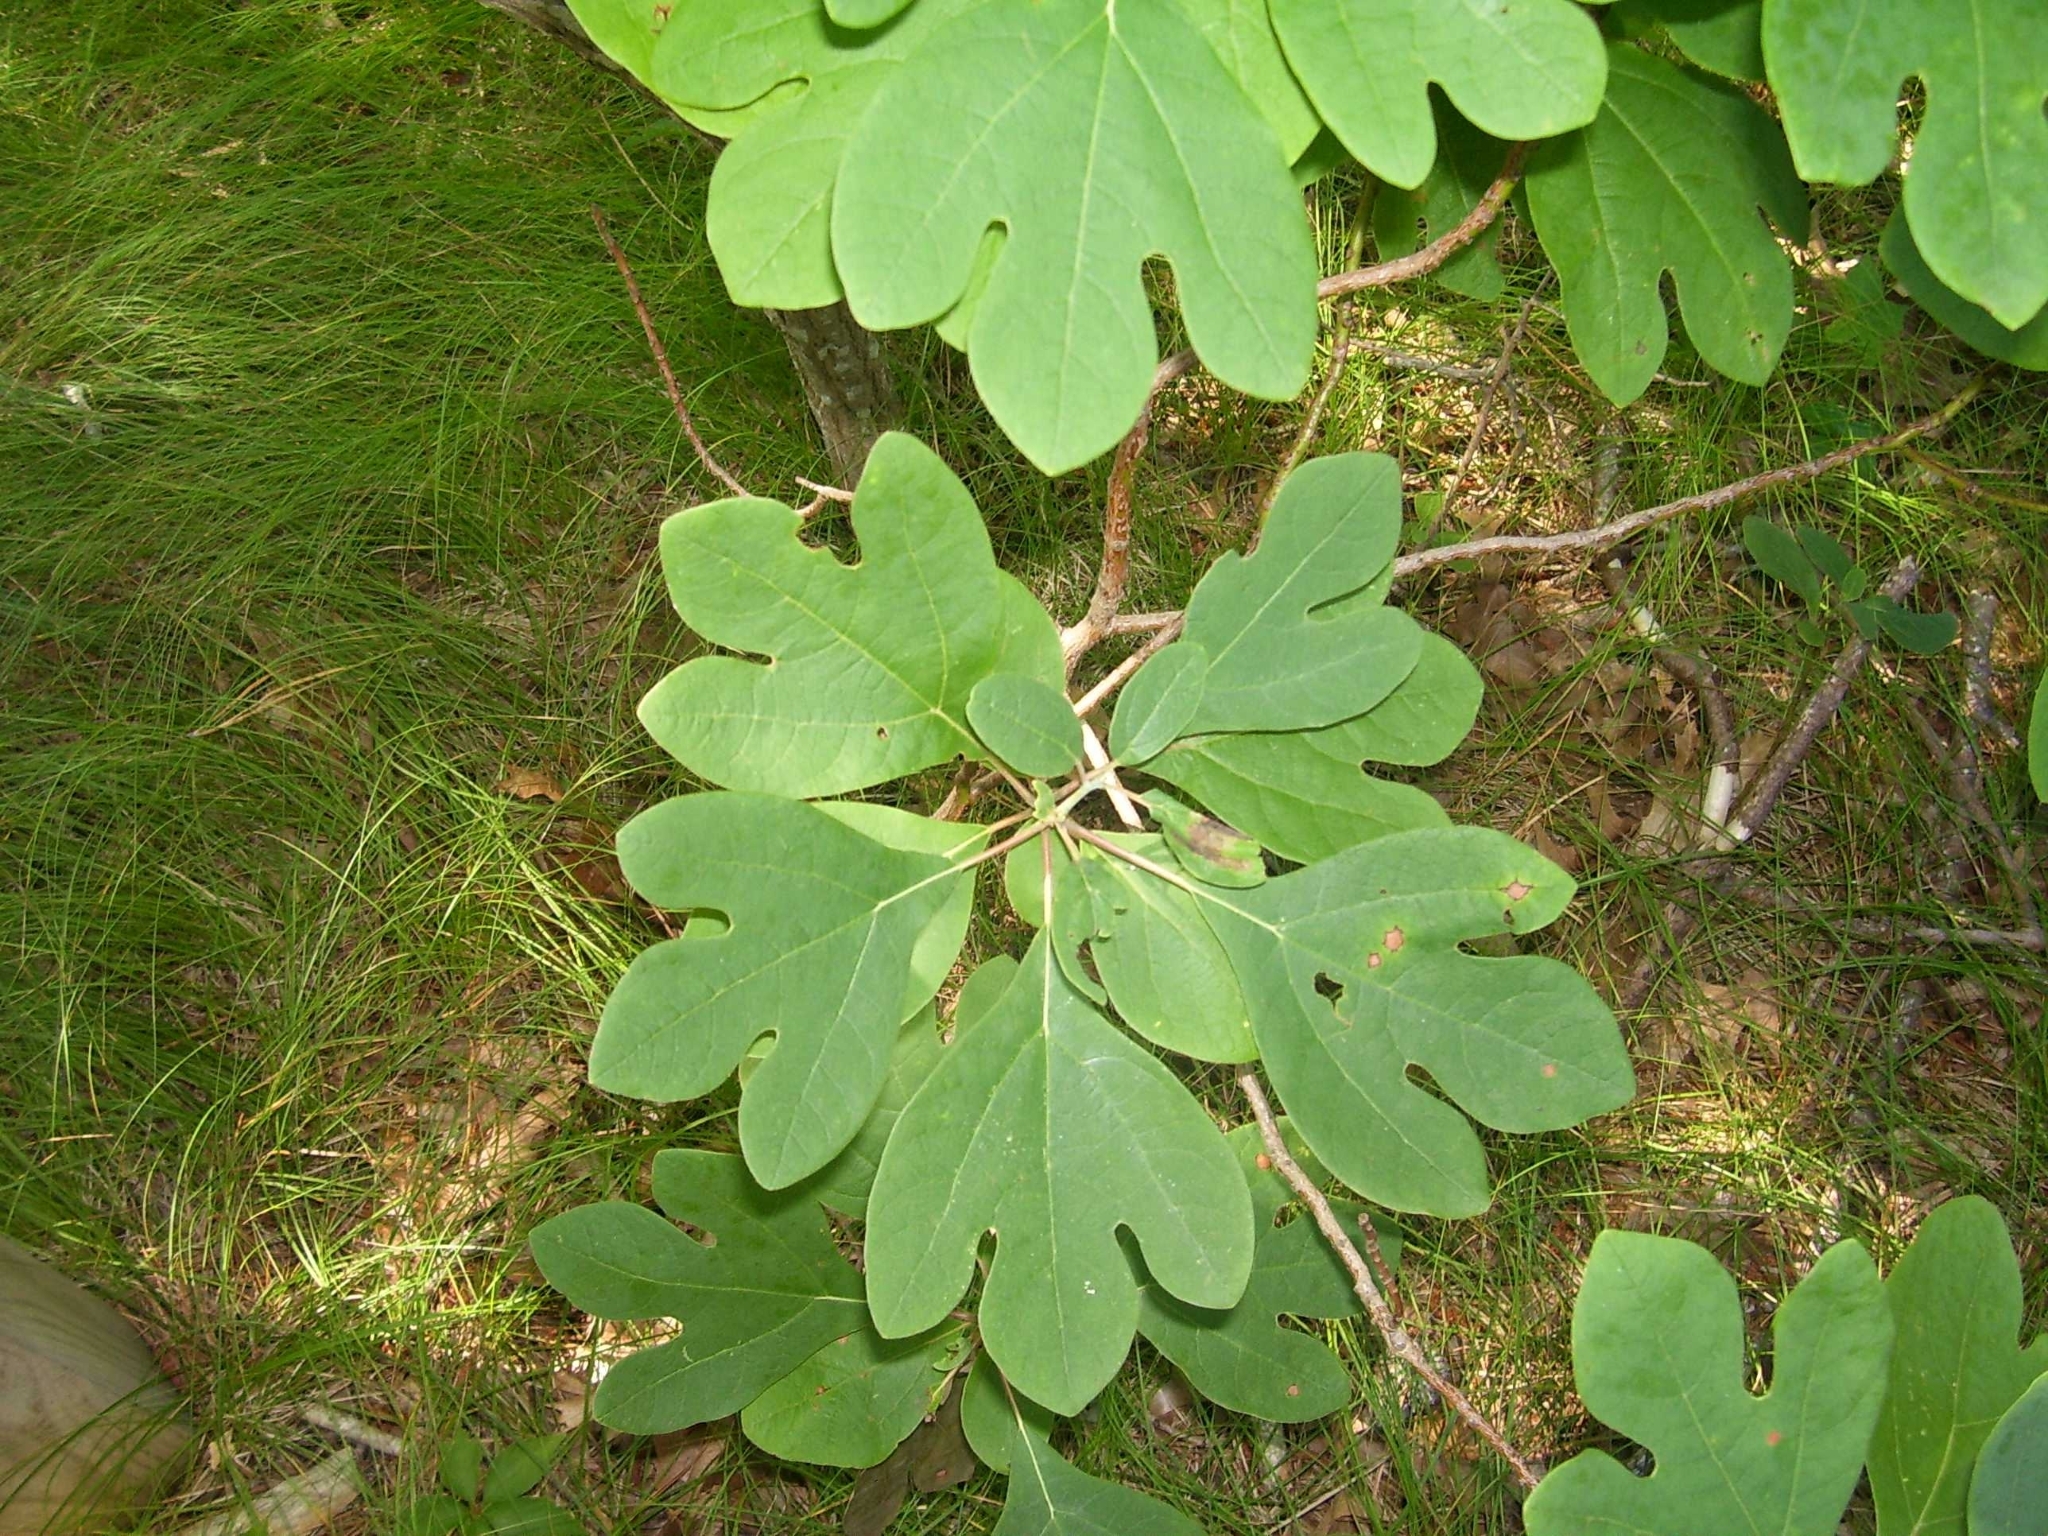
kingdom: Plantae
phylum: Tracheophyta
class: Magnoliopsida
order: Laurales
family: Lauraceae
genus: Sassafras
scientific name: Sassafras albidum
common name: Sassafras
